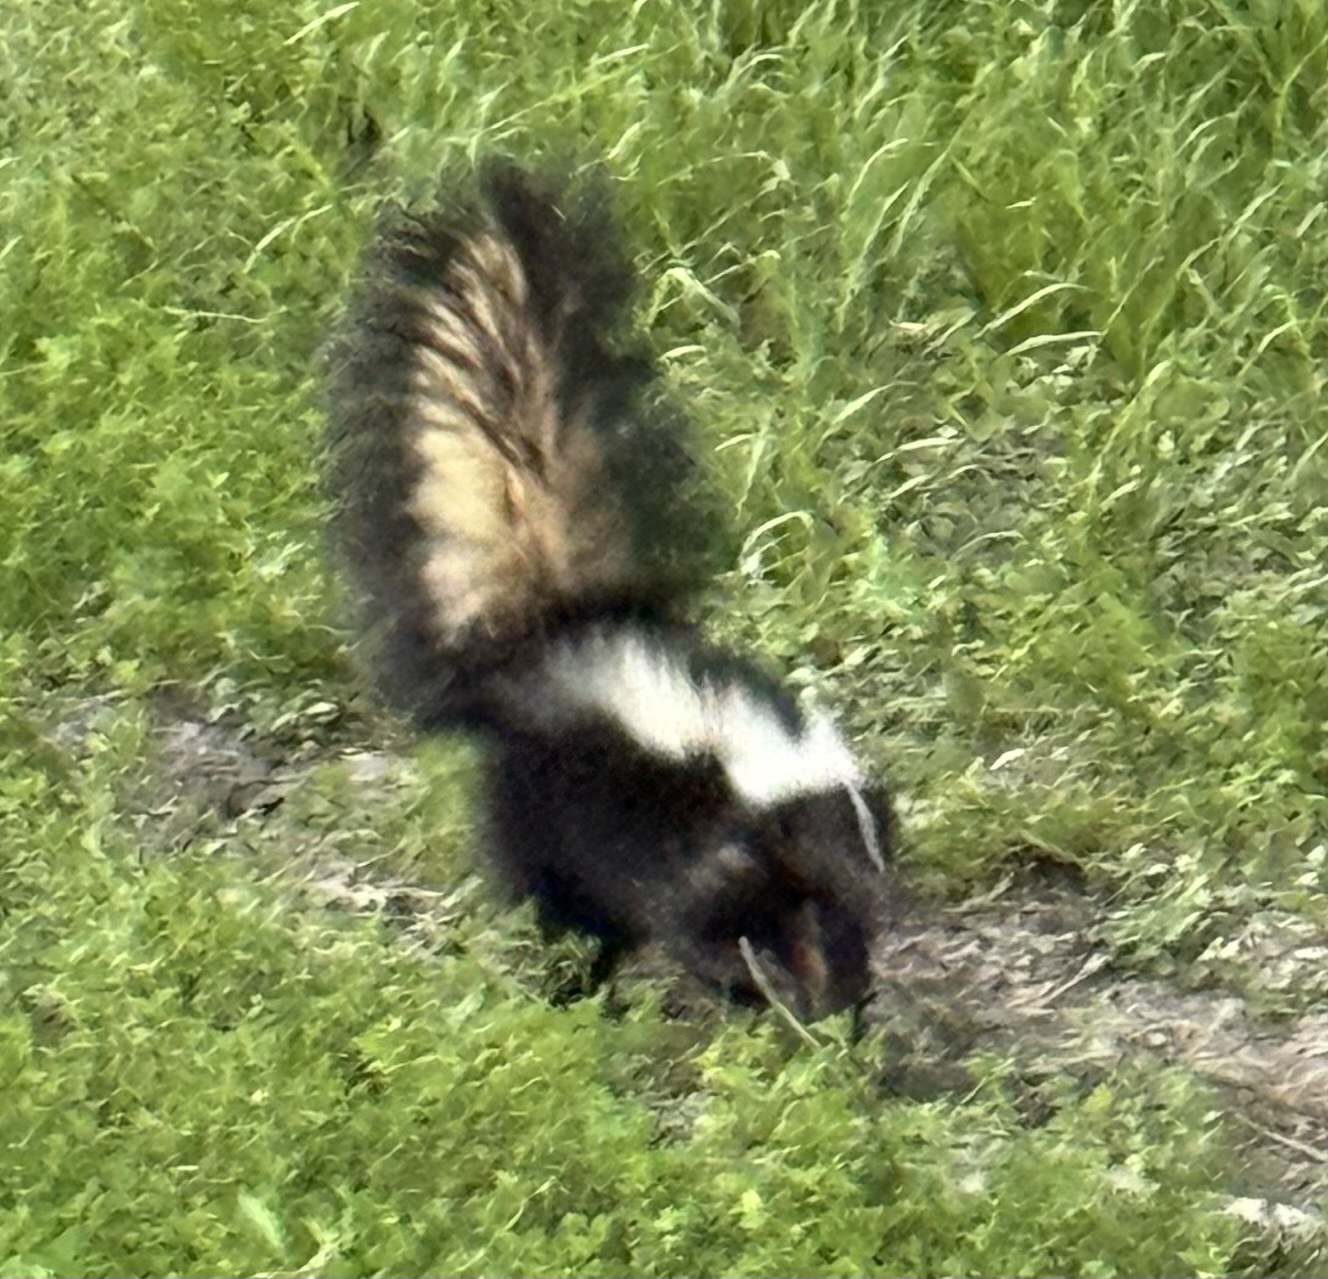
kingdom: Animalia
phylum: Chordata
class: Mammalia
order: Carnivora
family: Mephitidae
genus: Mephitis
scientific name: Mephitis mephitis
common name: Striped skunk
